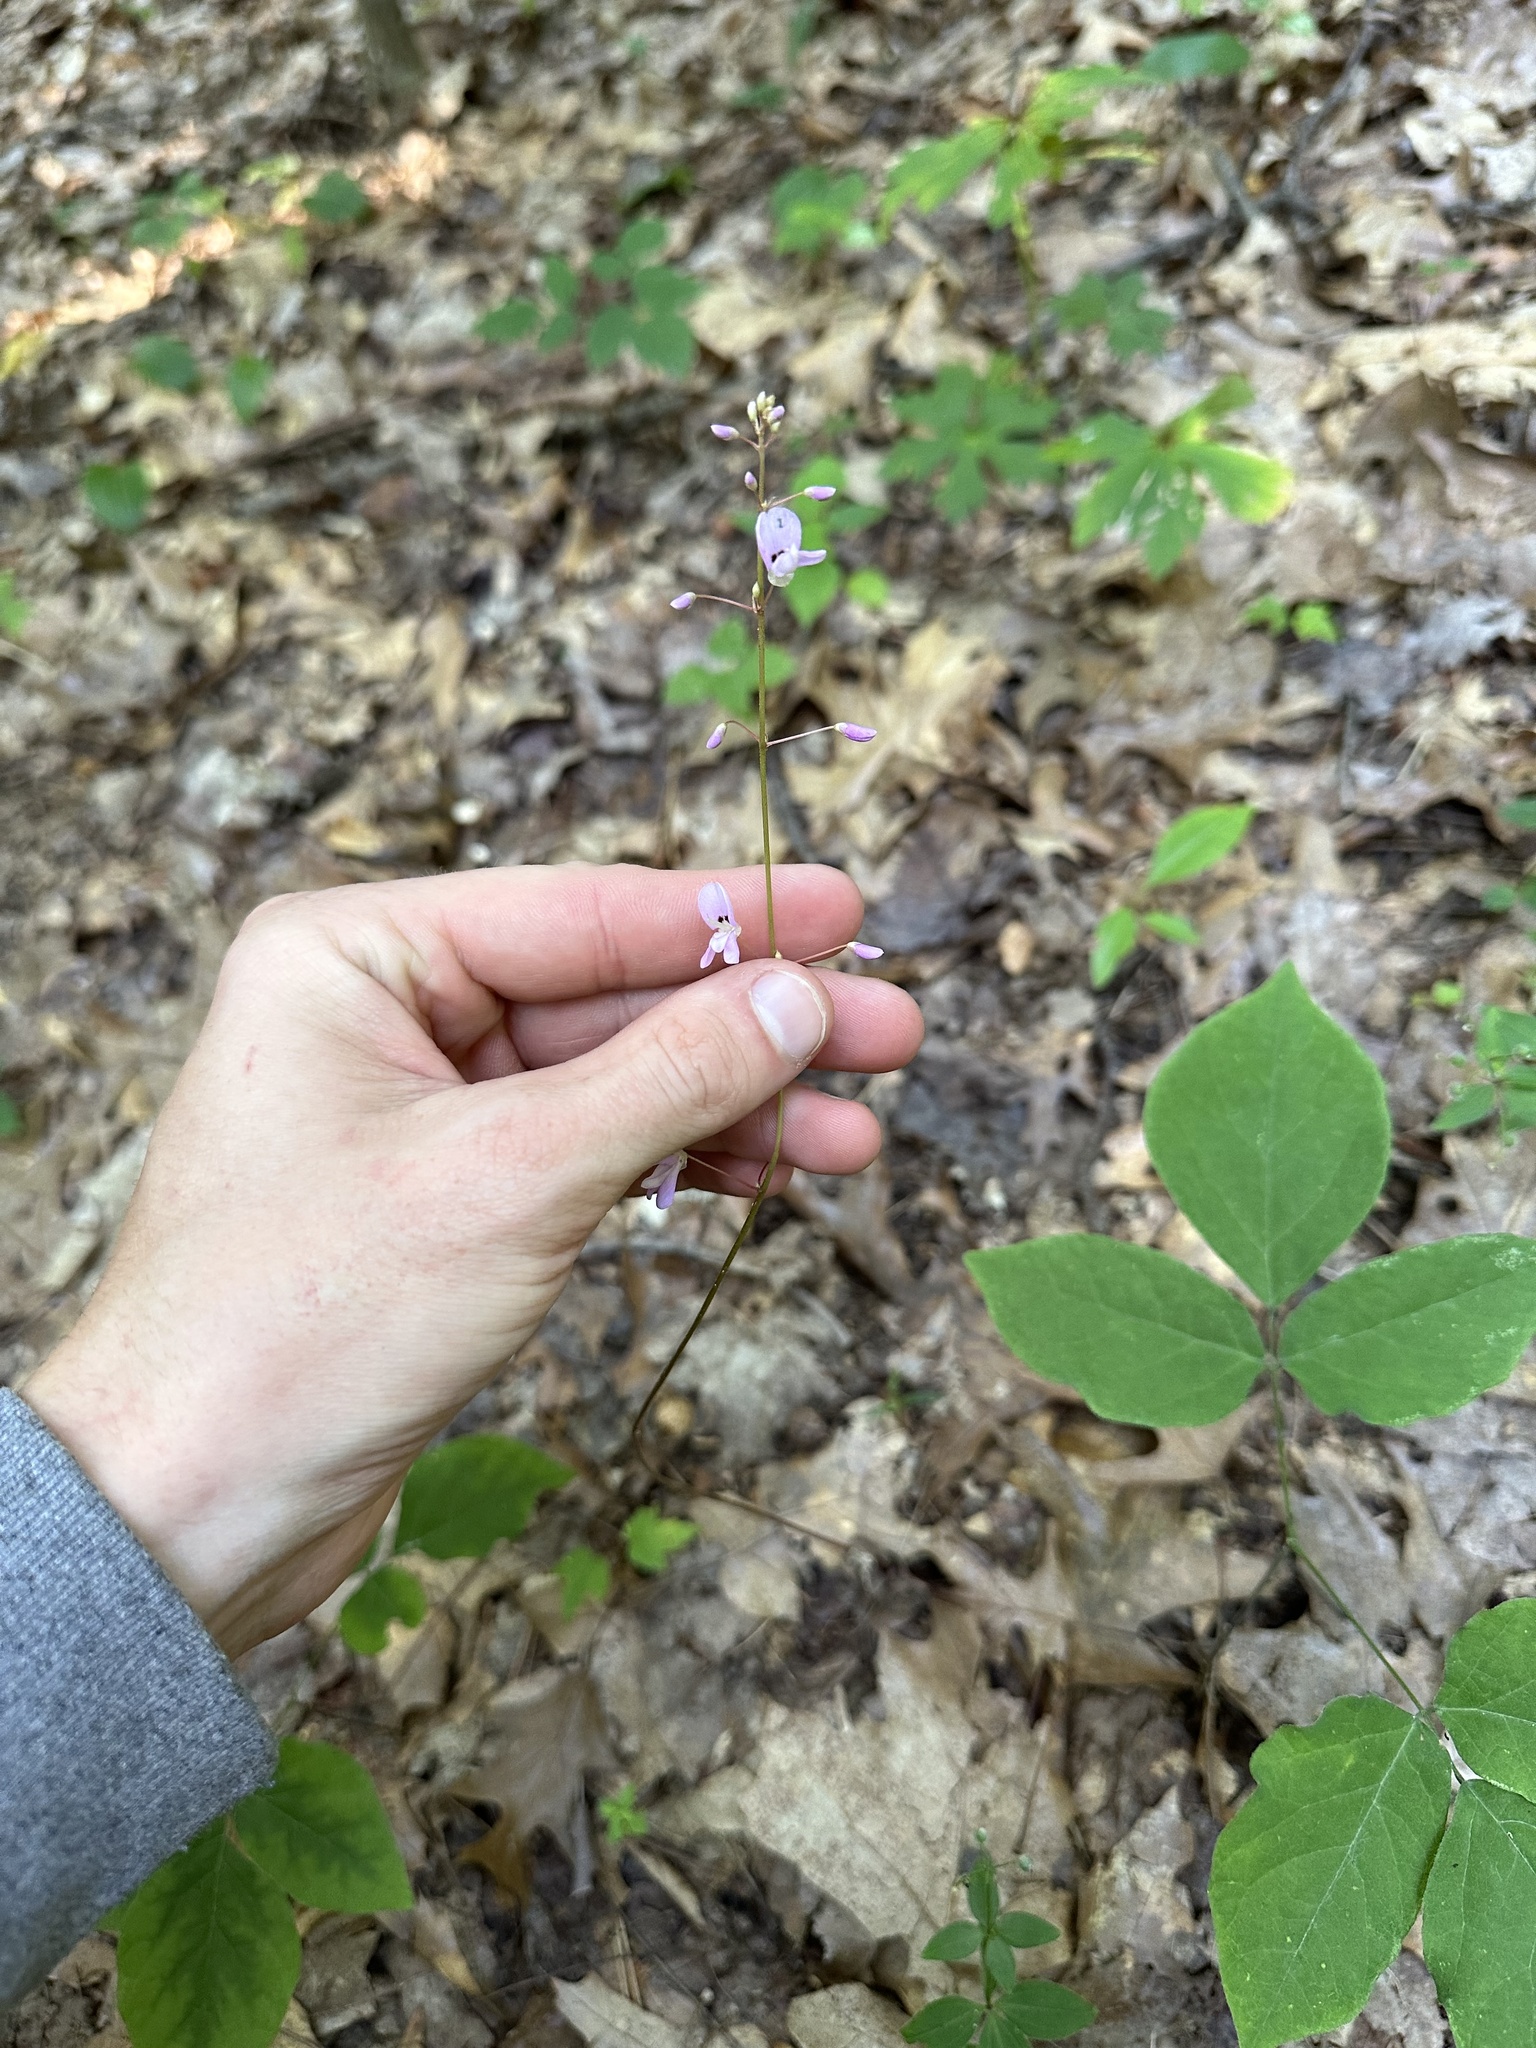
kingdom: Plantae
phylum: Tracheophyta
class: Magnoliopsida
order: Fabales
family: Fabaceae
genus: Hylodesmum
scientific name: Hylodesmum nudiflorum
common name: Bare-stemmed tick-trefoil
